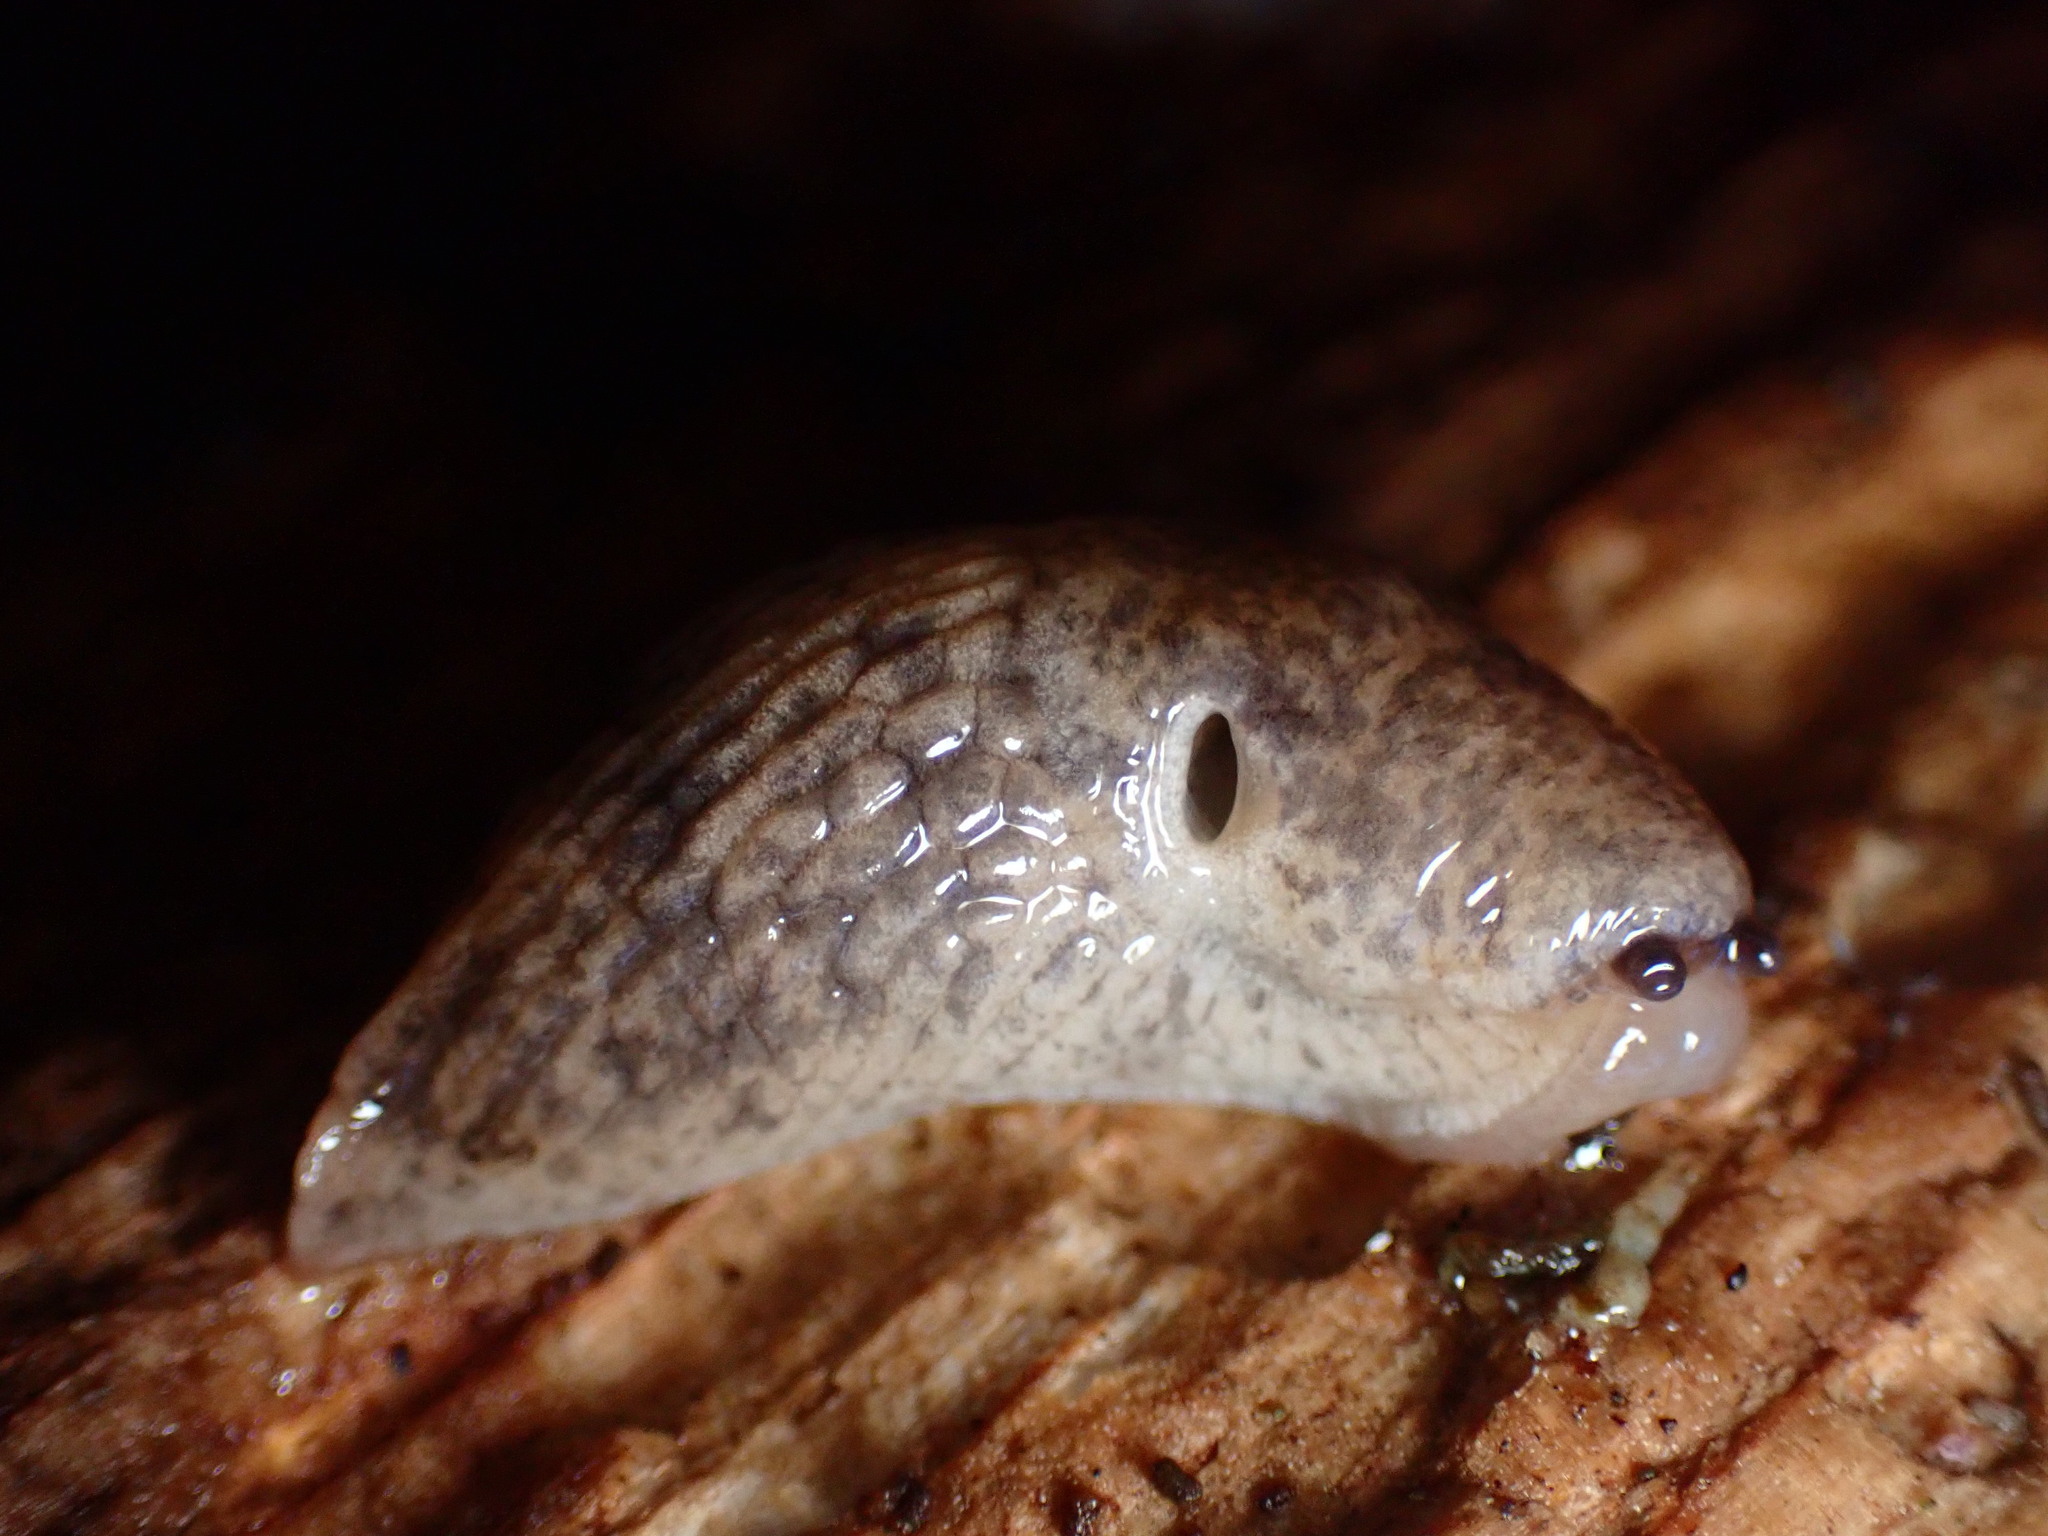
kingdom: Animalia
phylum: Mollusca
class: Gastropoda
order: Stylommatophora
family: Agriolimacidae
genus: Deroceras
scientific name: Deroceras reticulatum
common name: Gray field slug
